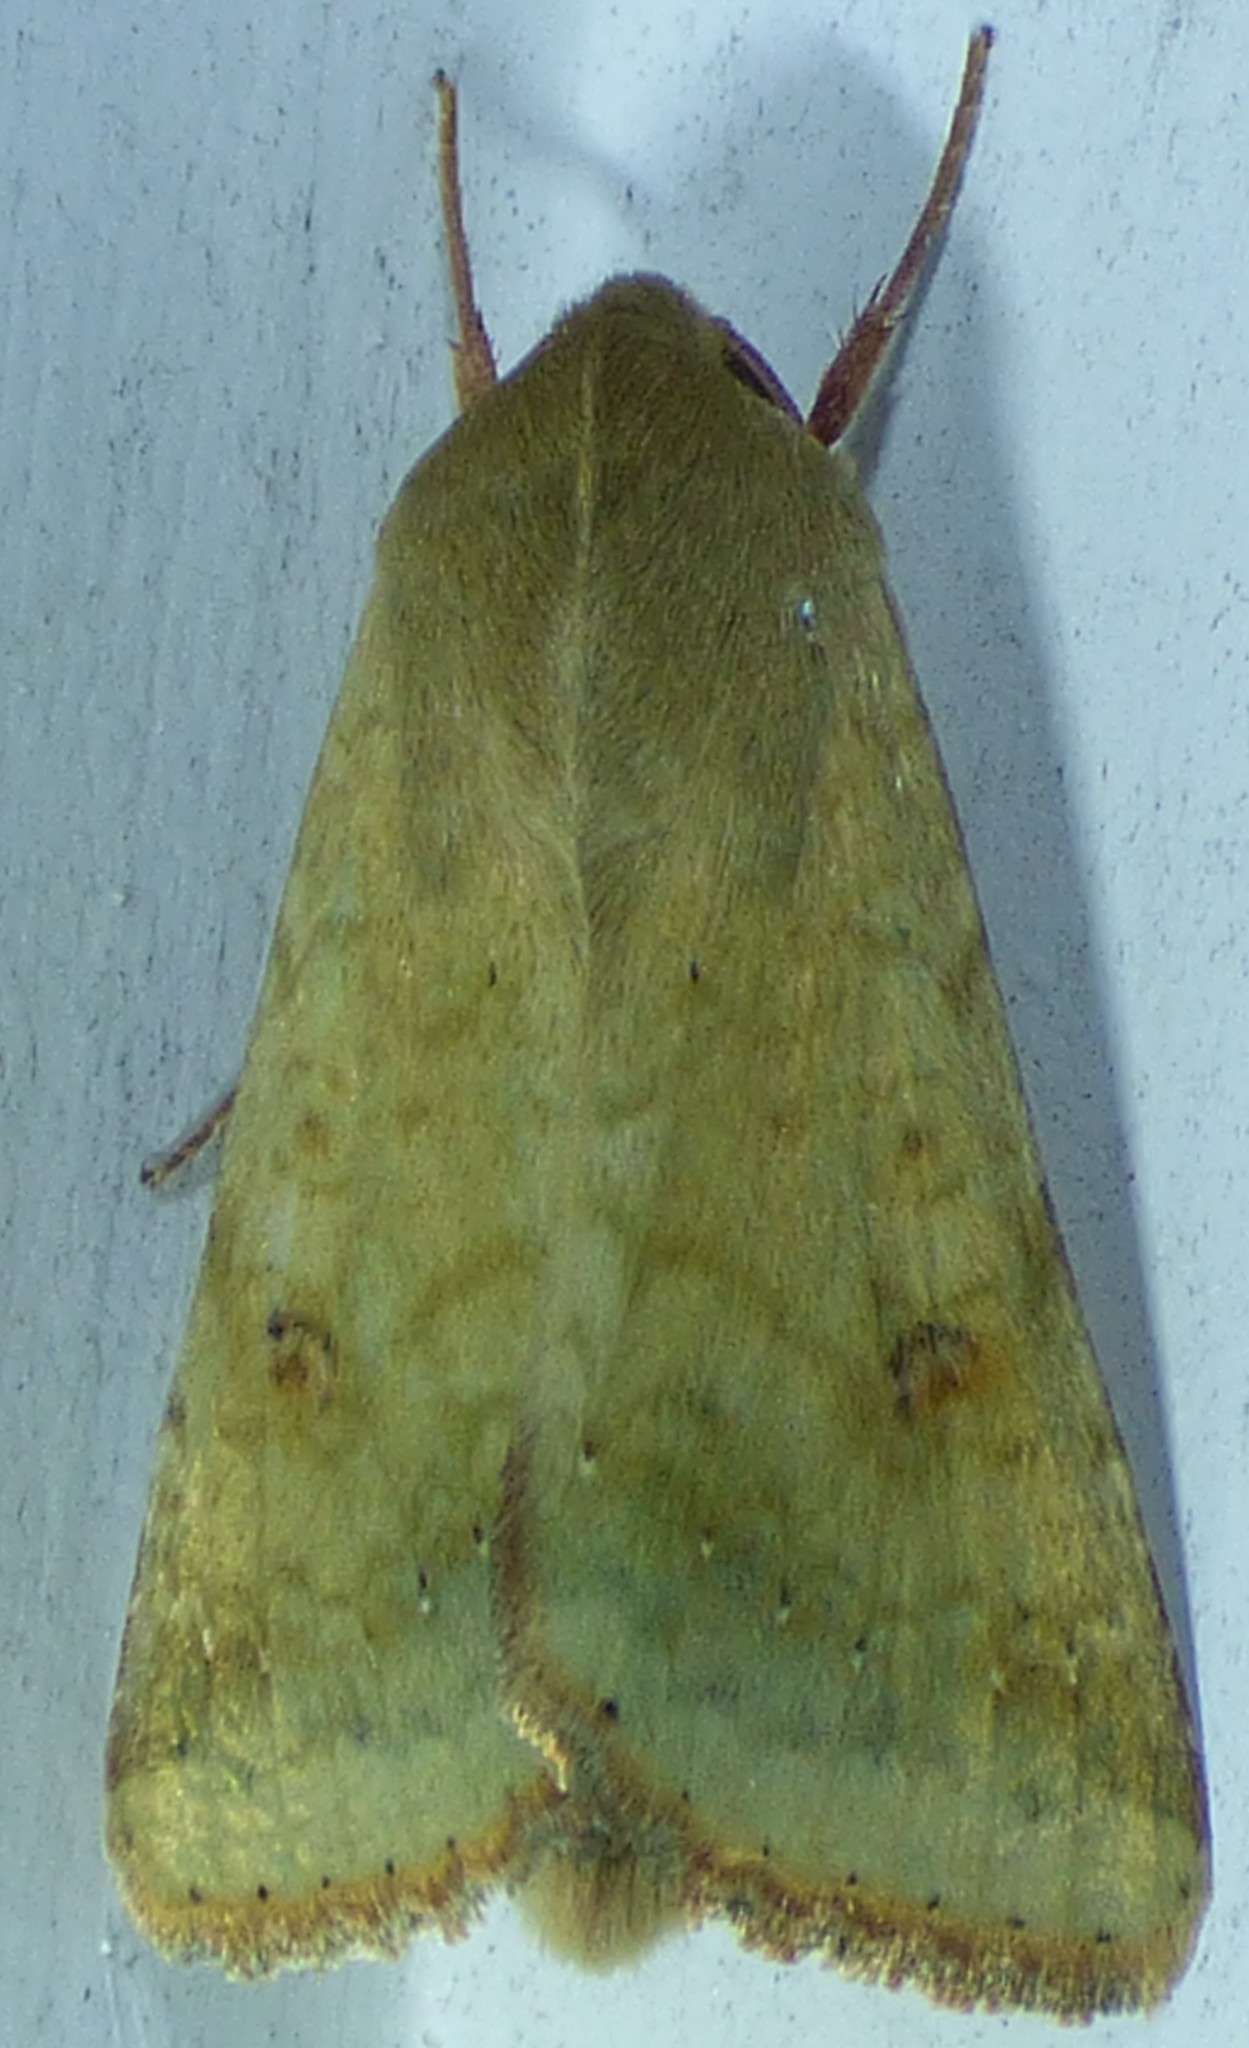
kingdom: Animalia
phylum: Arthropoda
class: Insecta
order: Lepidoptera
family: Noctuidae
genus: Helicoverpa
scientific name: Helicoverpa zea
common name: Bollworm
